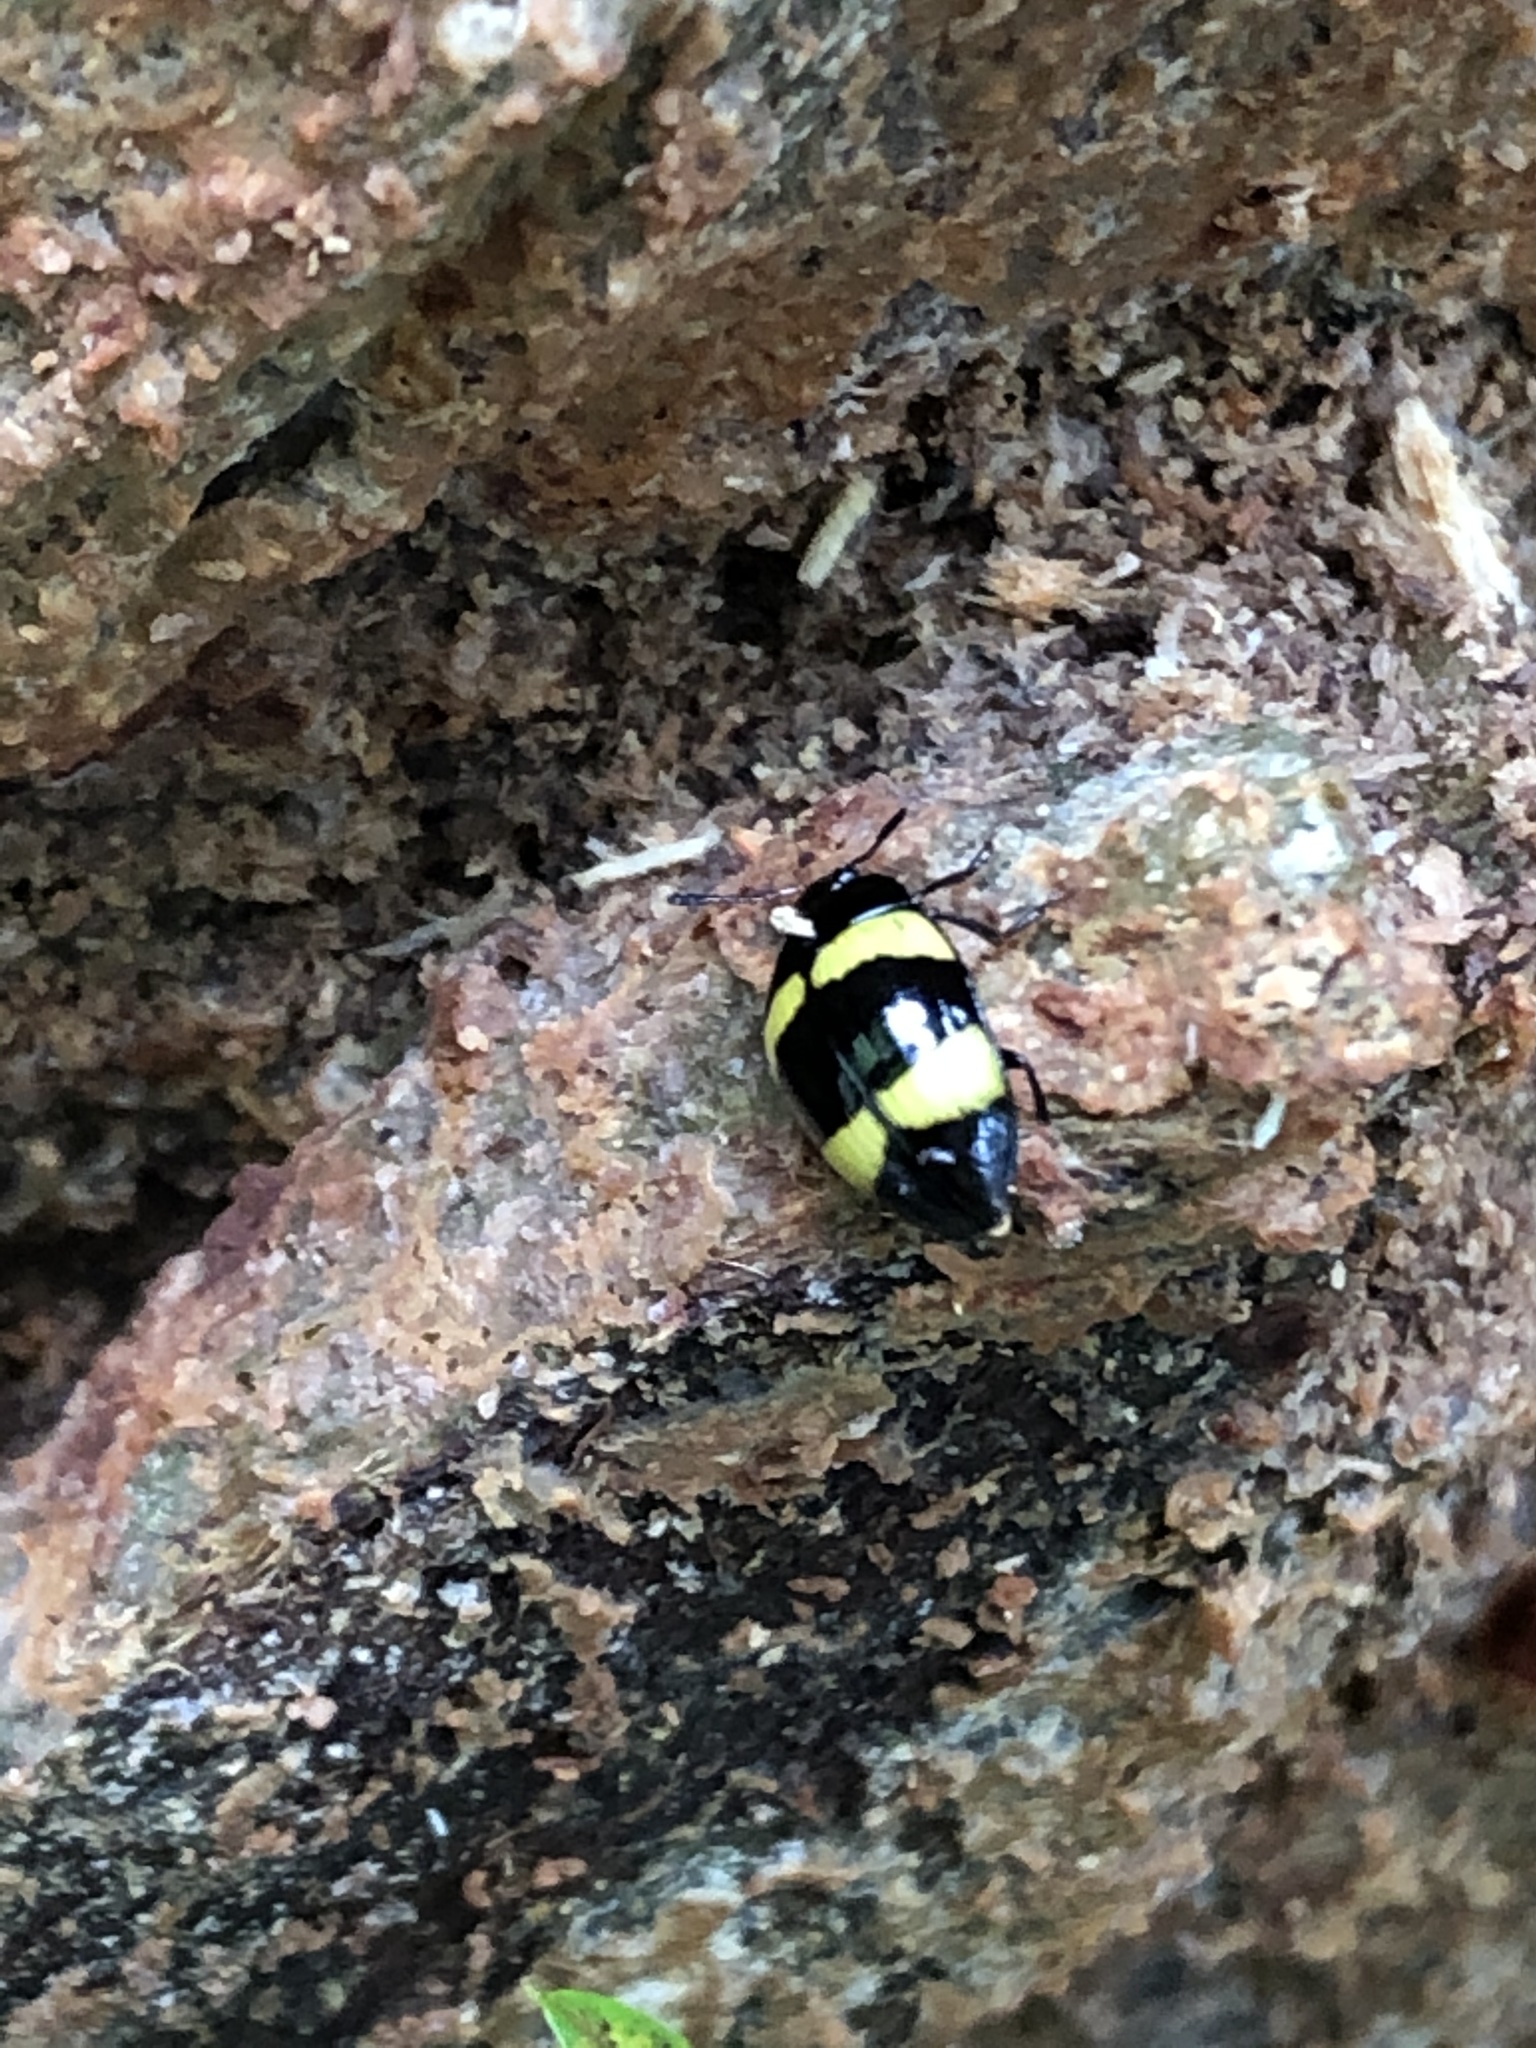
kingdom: Animalia
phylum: Arthropoda
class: Insecta
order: Coleoptera
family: Erotylidae
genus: Iphiclus
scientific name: Iphiclus
